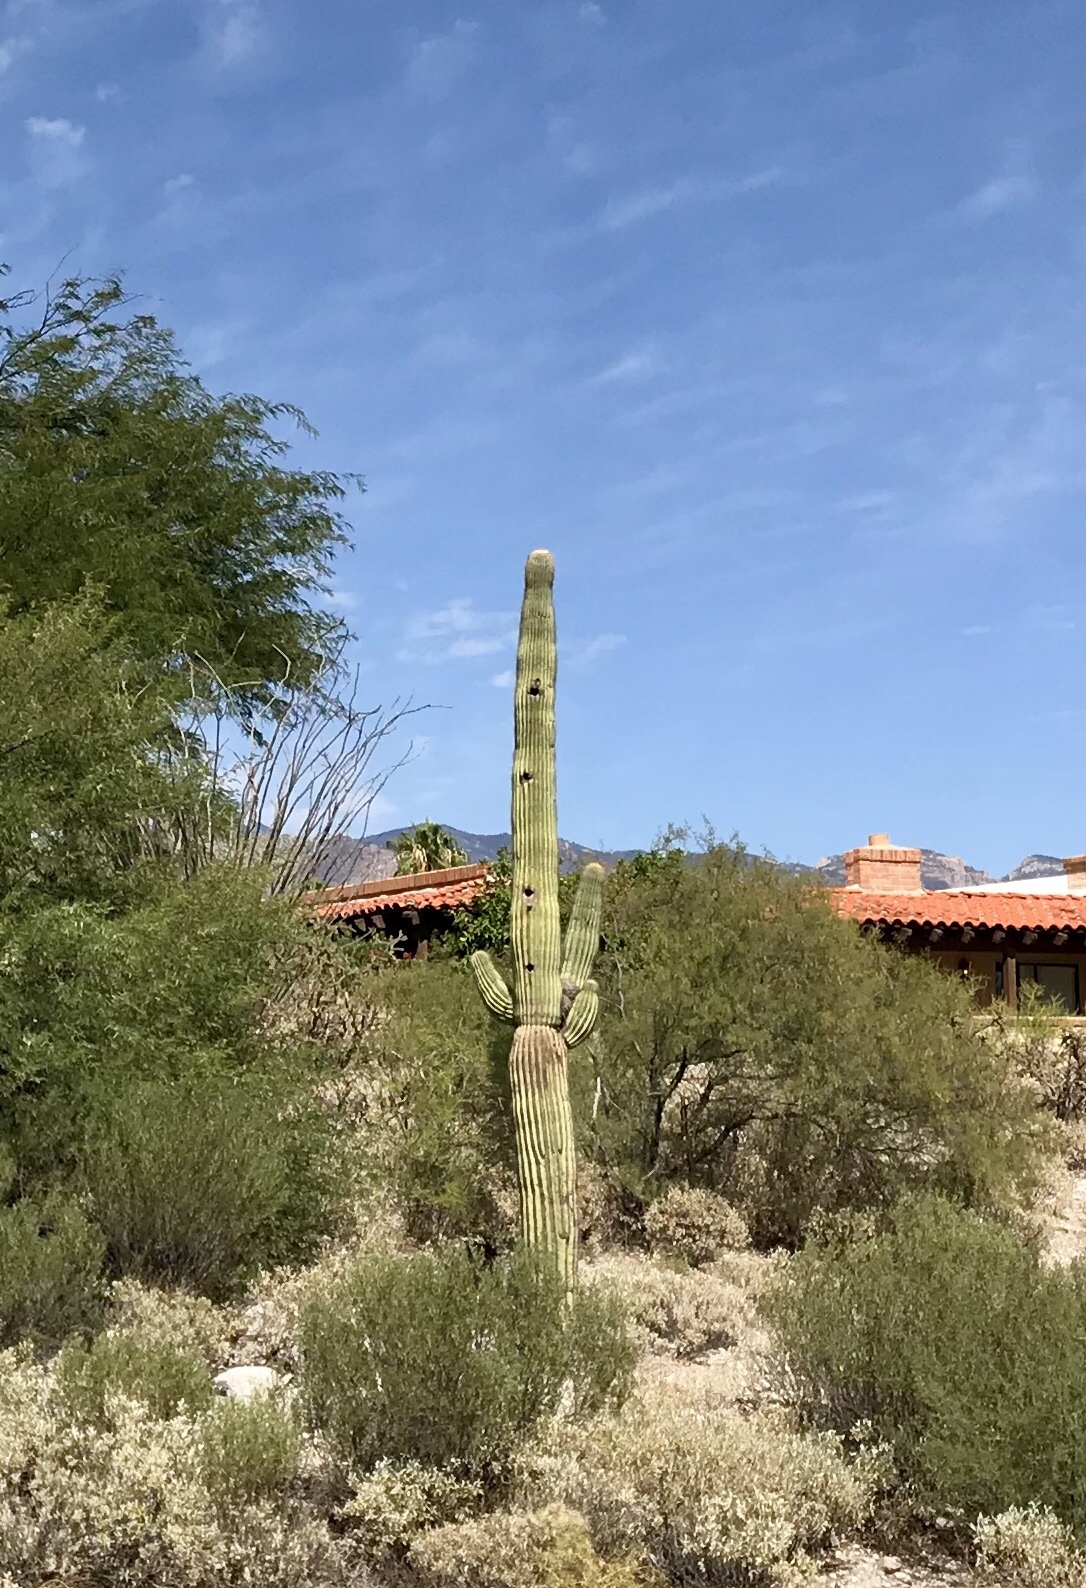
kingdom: Plantae
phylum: Tracheophyta
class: Magnoliopsida
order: Caryophyllales
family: Cactaceae
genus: Carnegiea
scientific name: Carnegiea gigantea
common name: Saguaro
